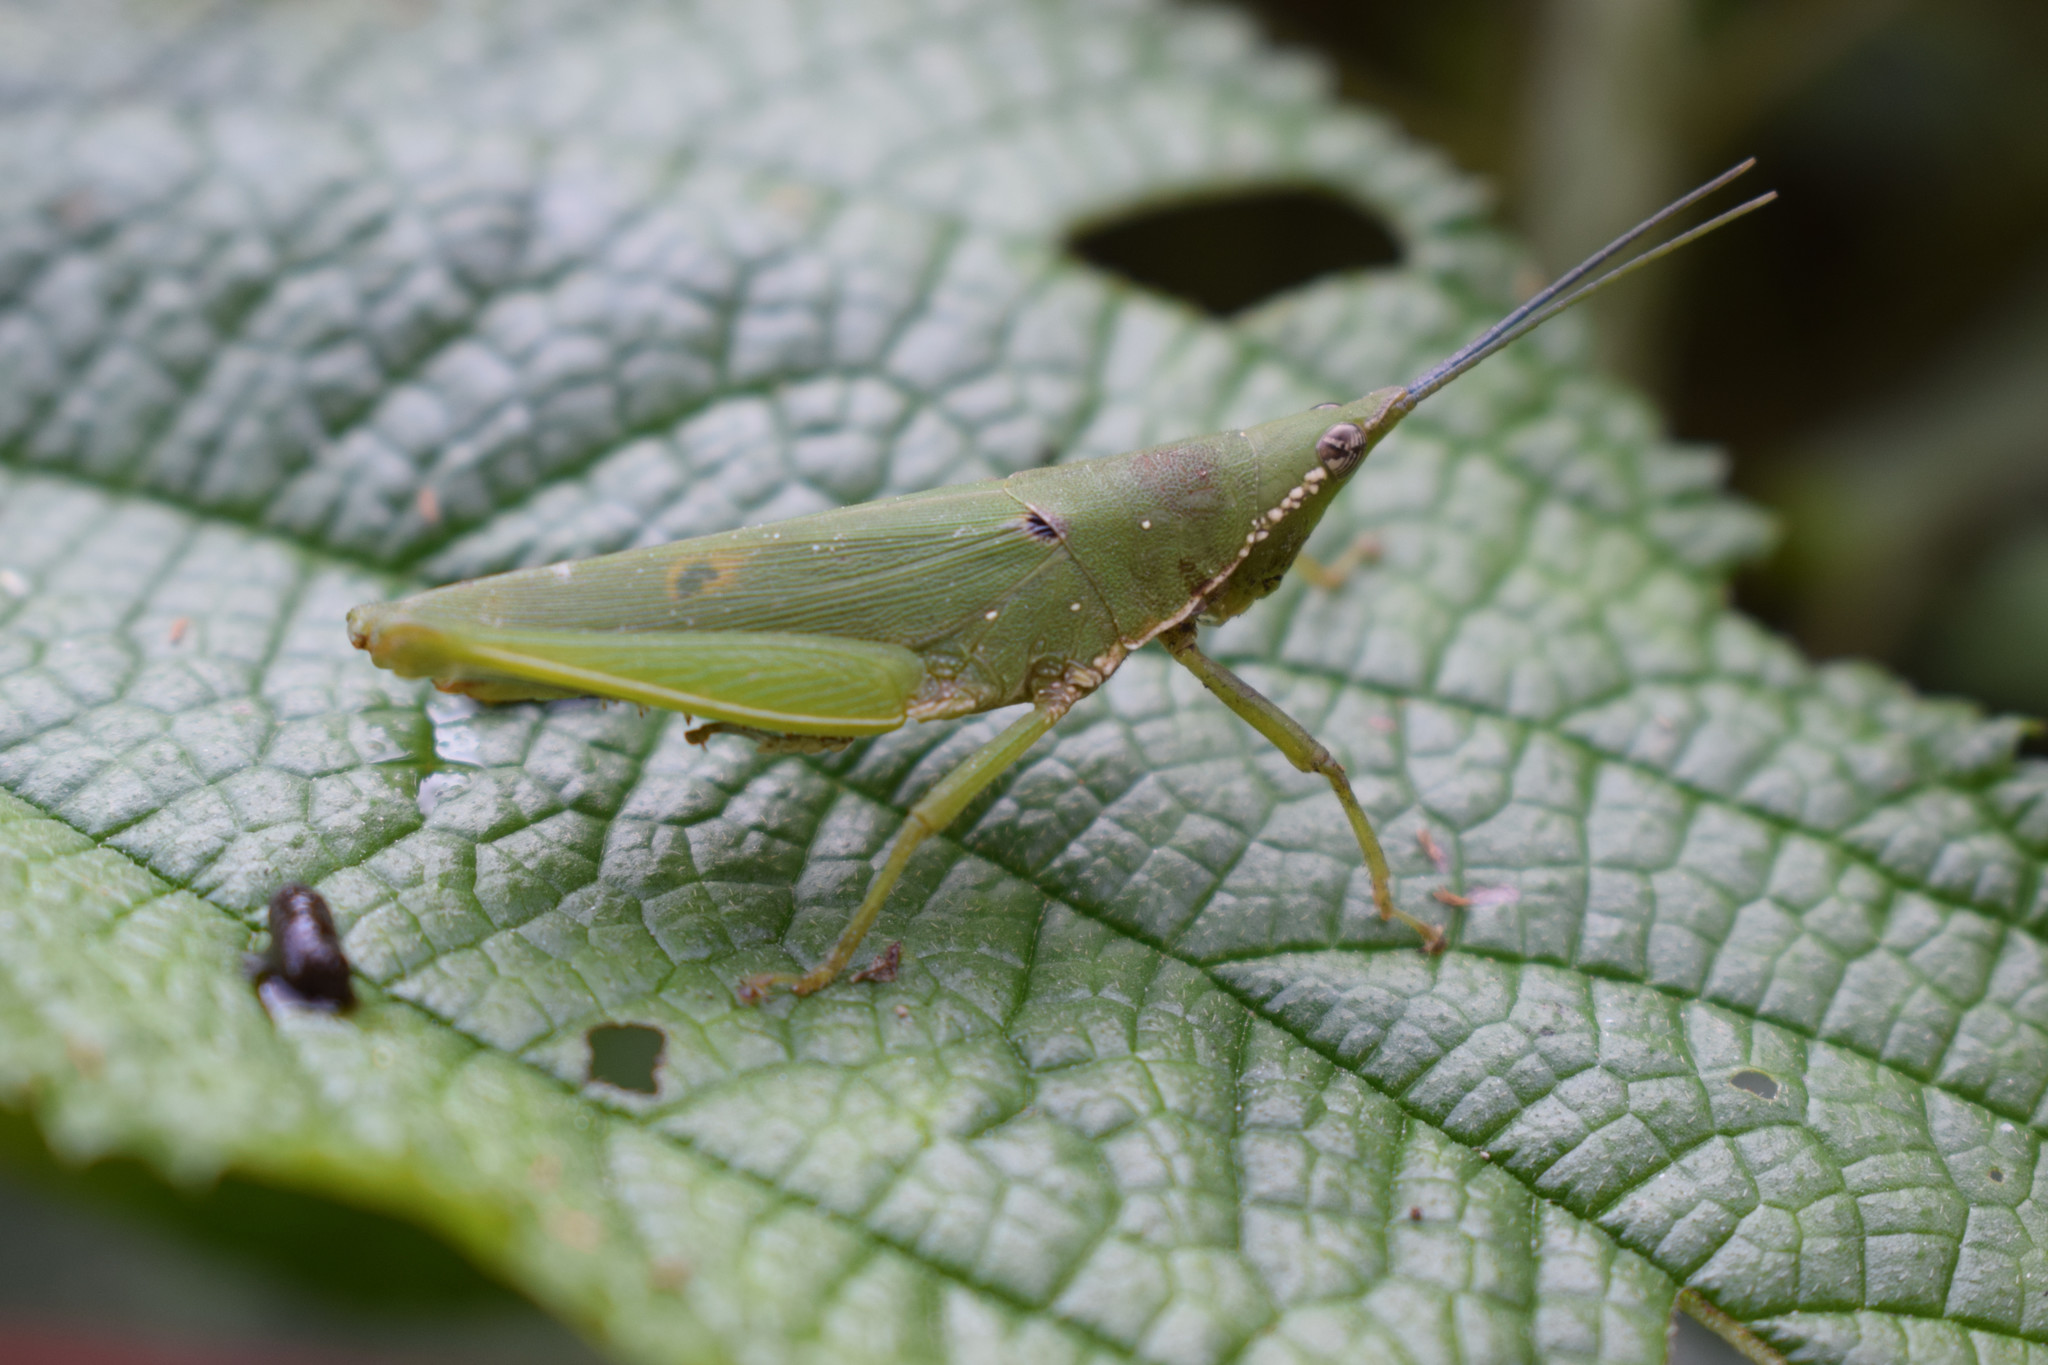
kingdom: Animalia
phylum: Arthropoda
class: Insecta
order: Orthoptera
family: Pyrgomorphidae
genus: Tagasta
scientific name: Tagasta indica
